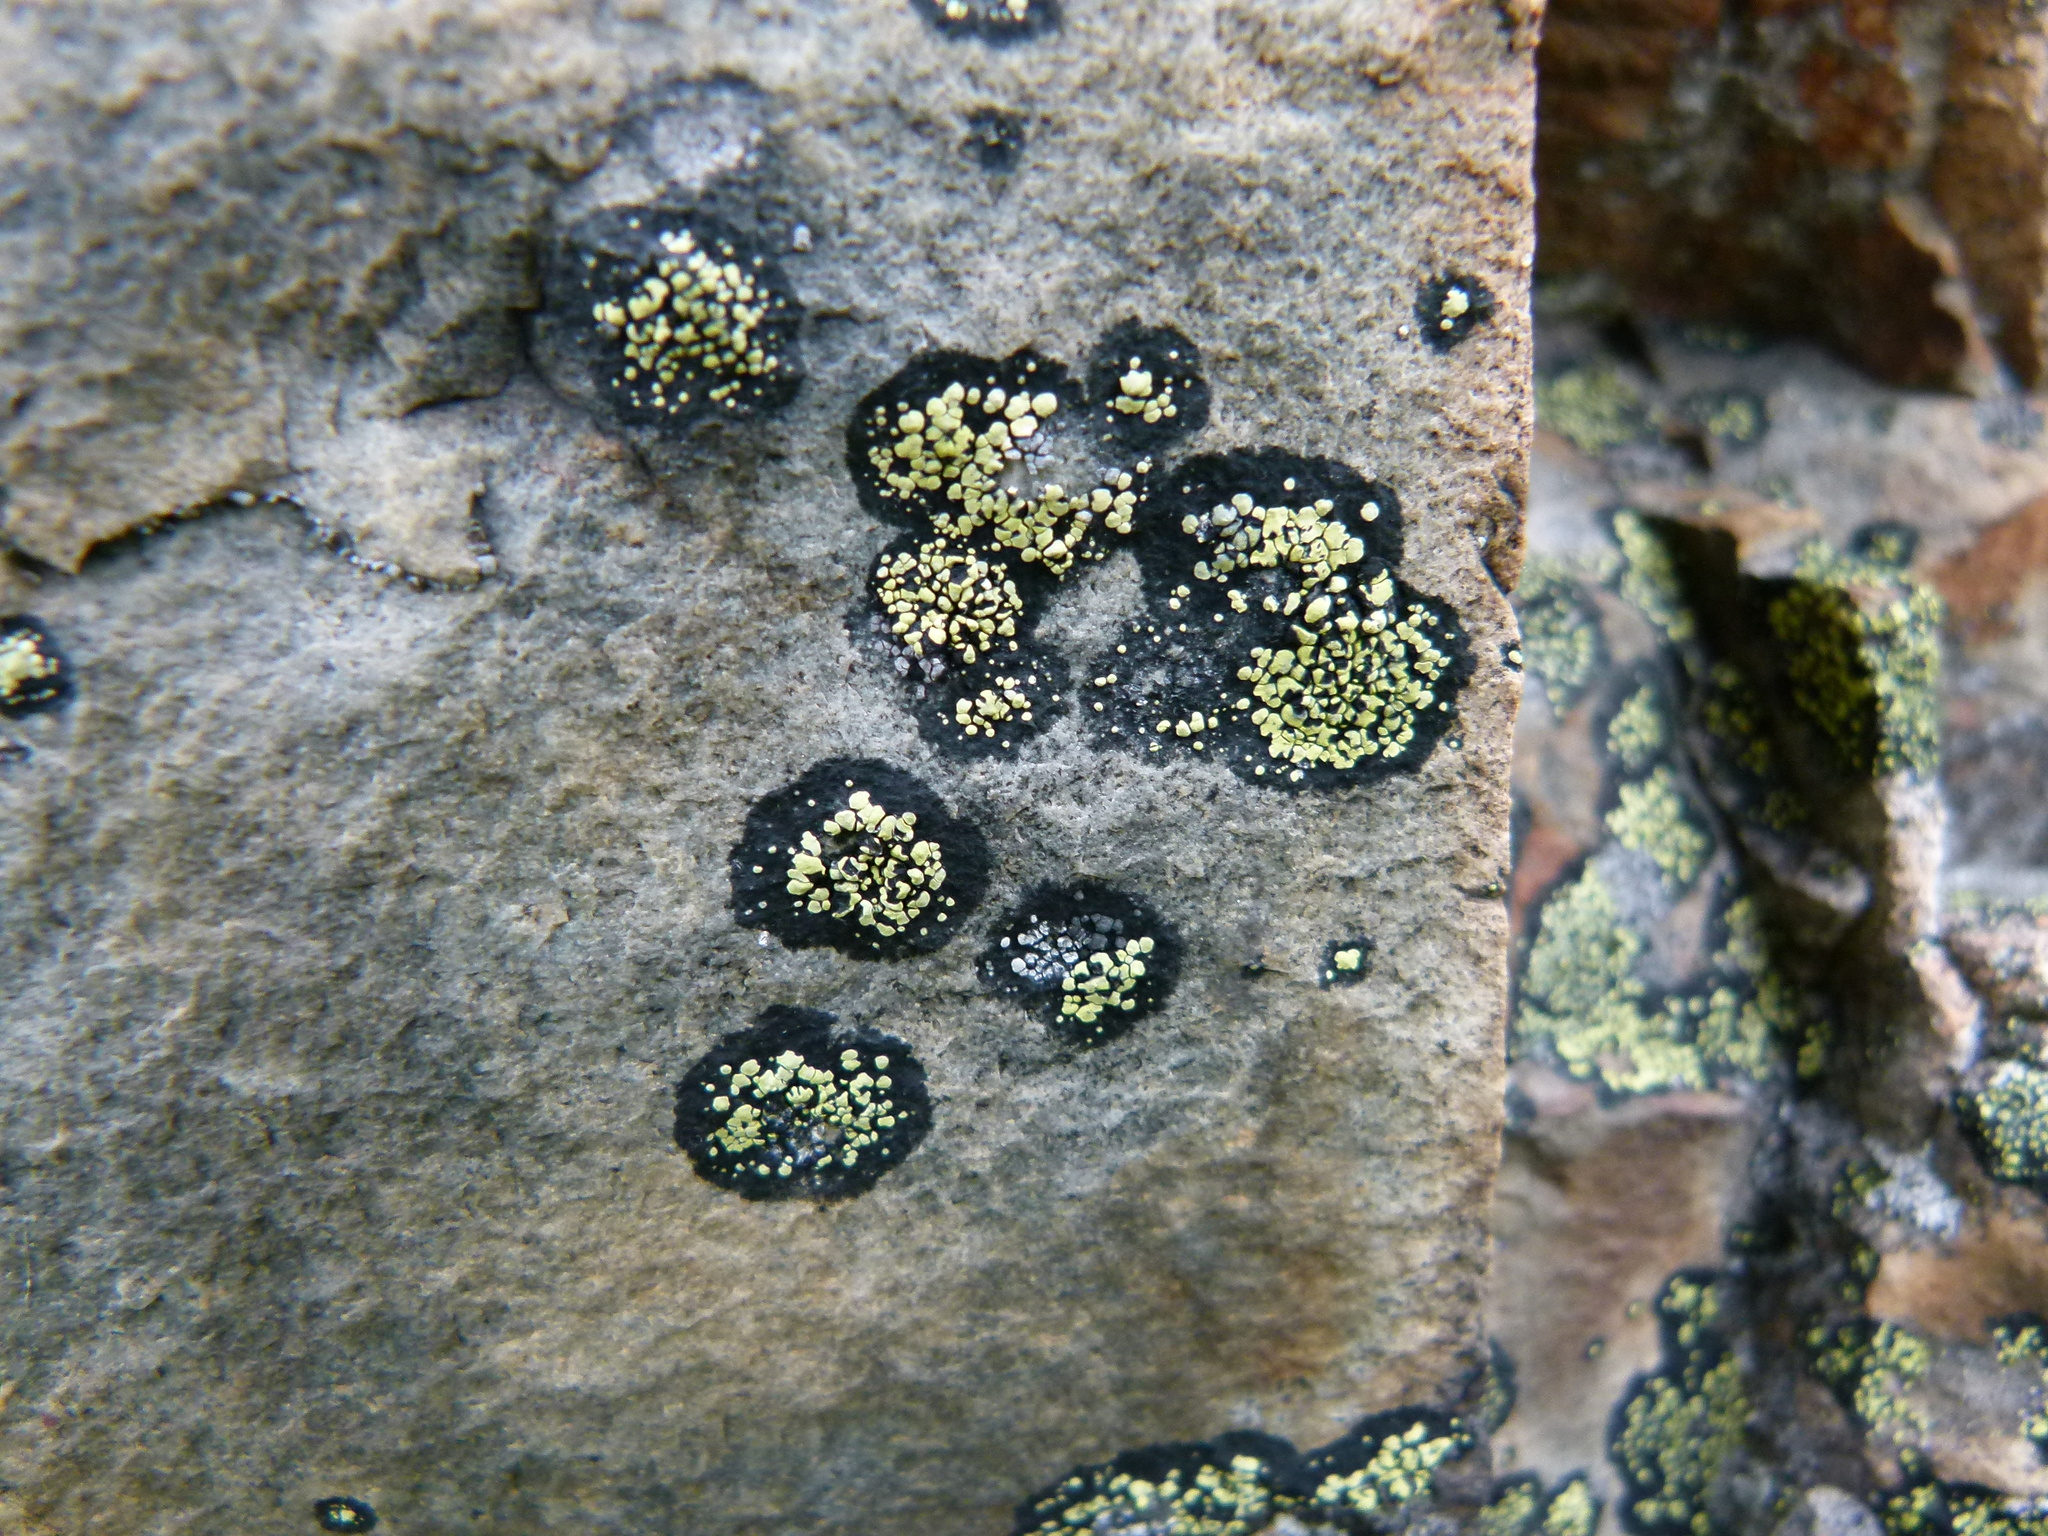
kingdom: Fungi
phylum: Ascomycota
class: Lecanoromycetes
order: Rhizocarpales
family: Rhizocarpaceae
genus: Rhizocarpon
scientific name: Rhizocarpon geographicum
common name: Yellow map lichen
